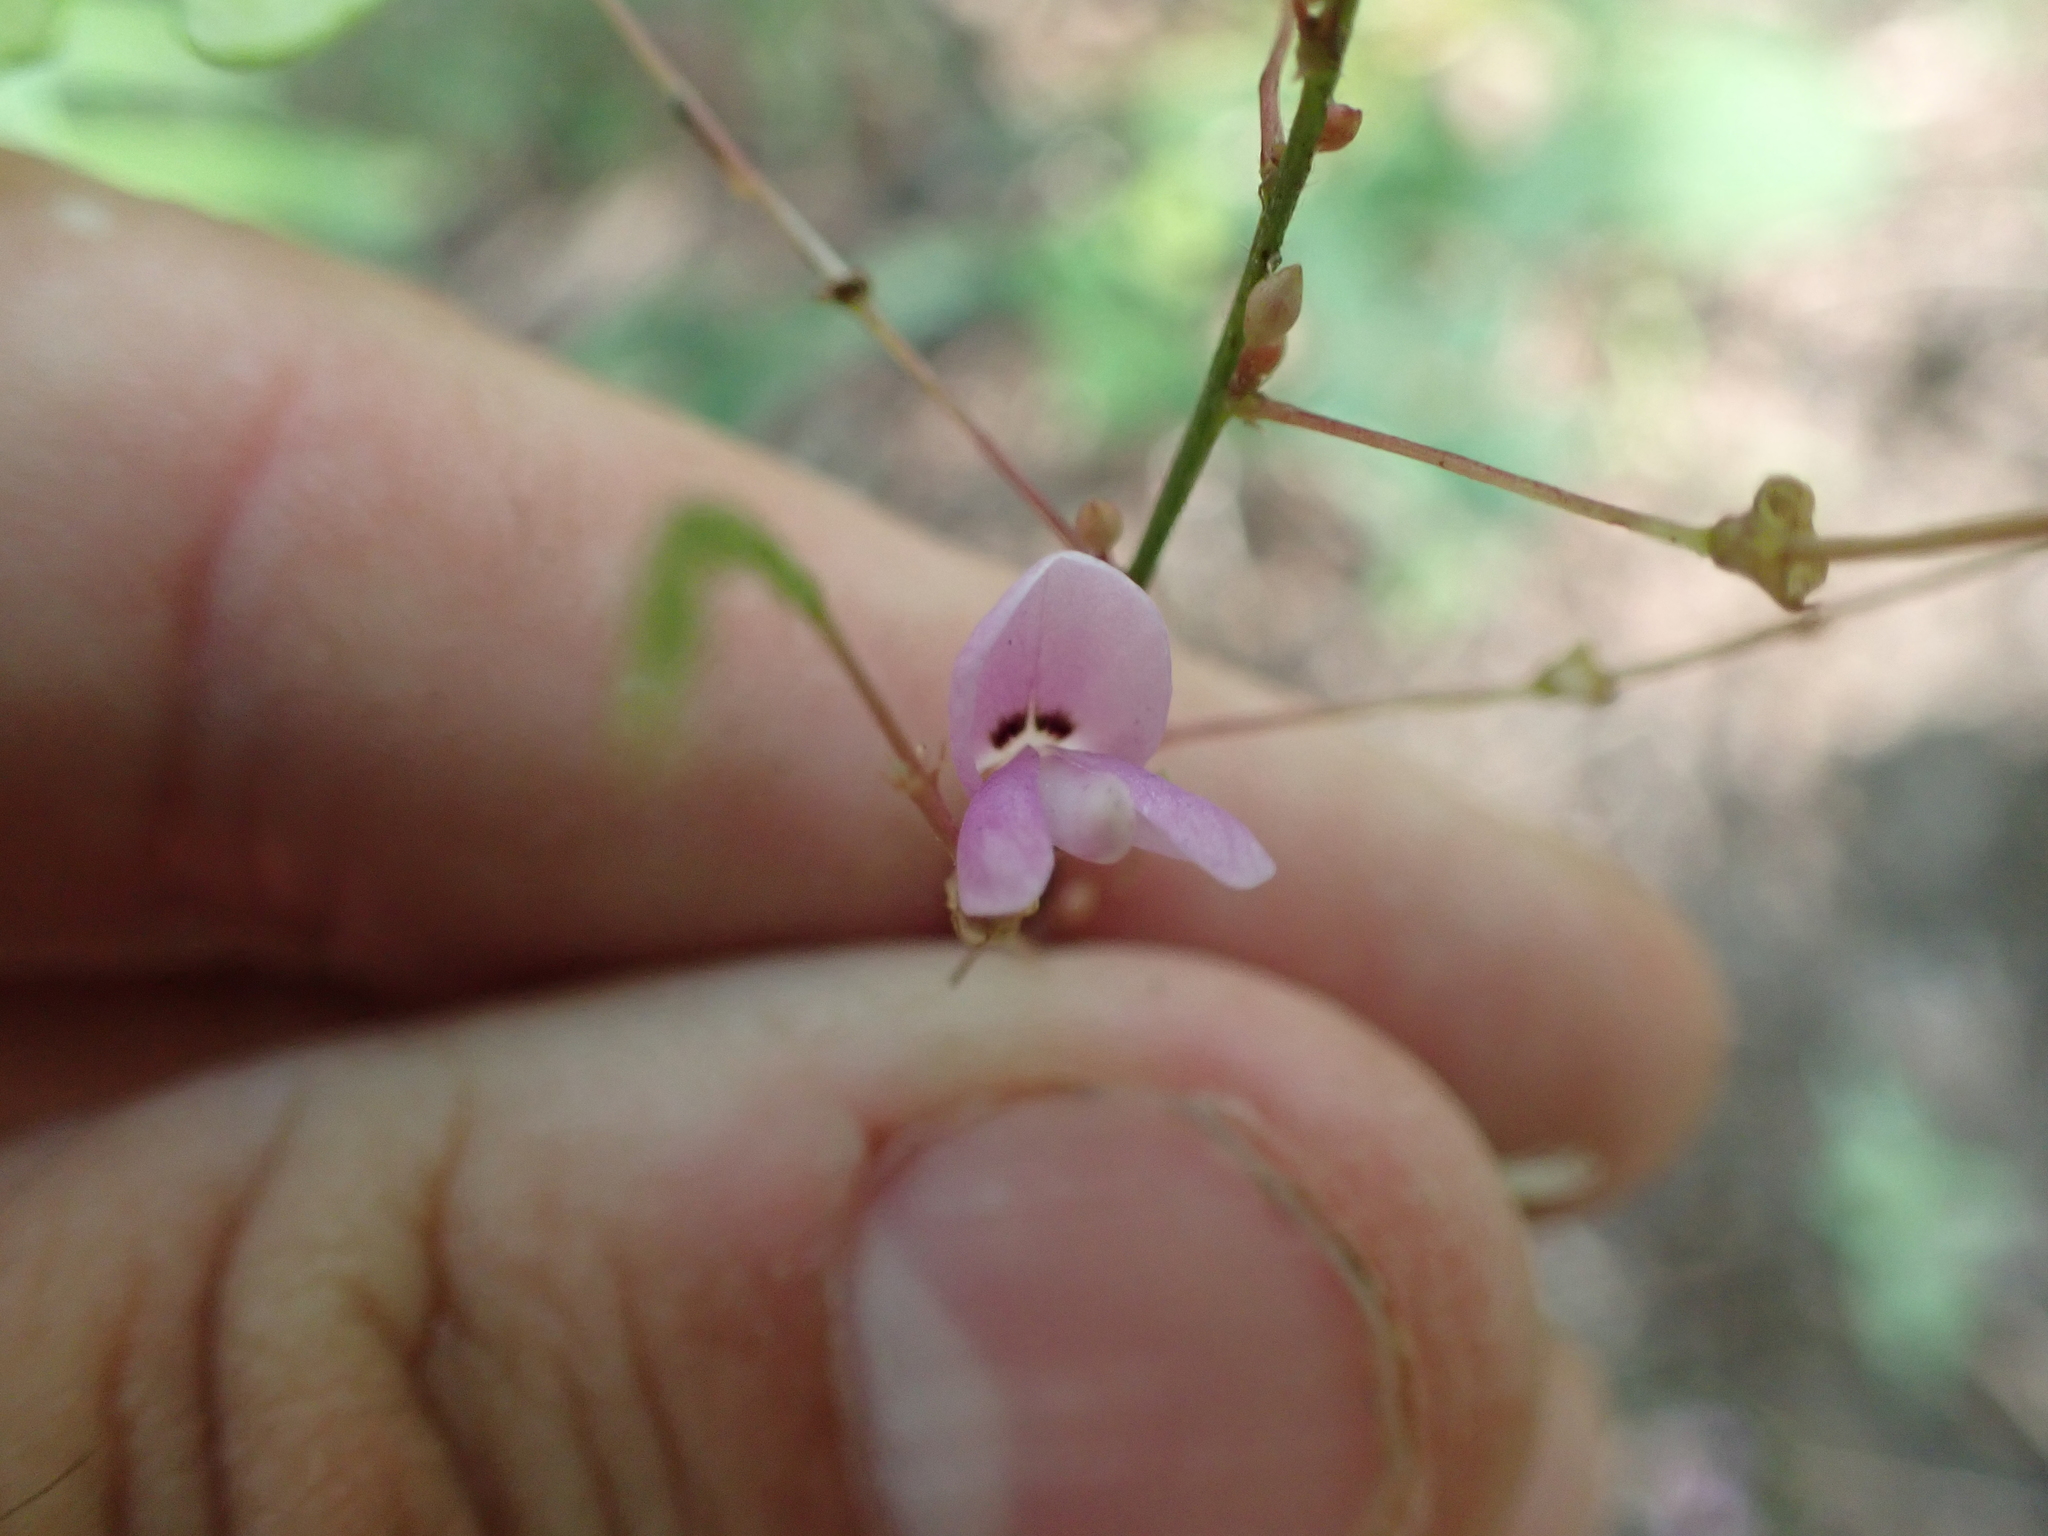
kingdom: Plantae
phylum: Tracheophyta
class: Magnoliopsida
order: Fabales
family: Fabaceae
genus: Hylodesmum
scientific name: Hylodesmum nudiflorum
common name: Bare-stemmed tick-trefoil
